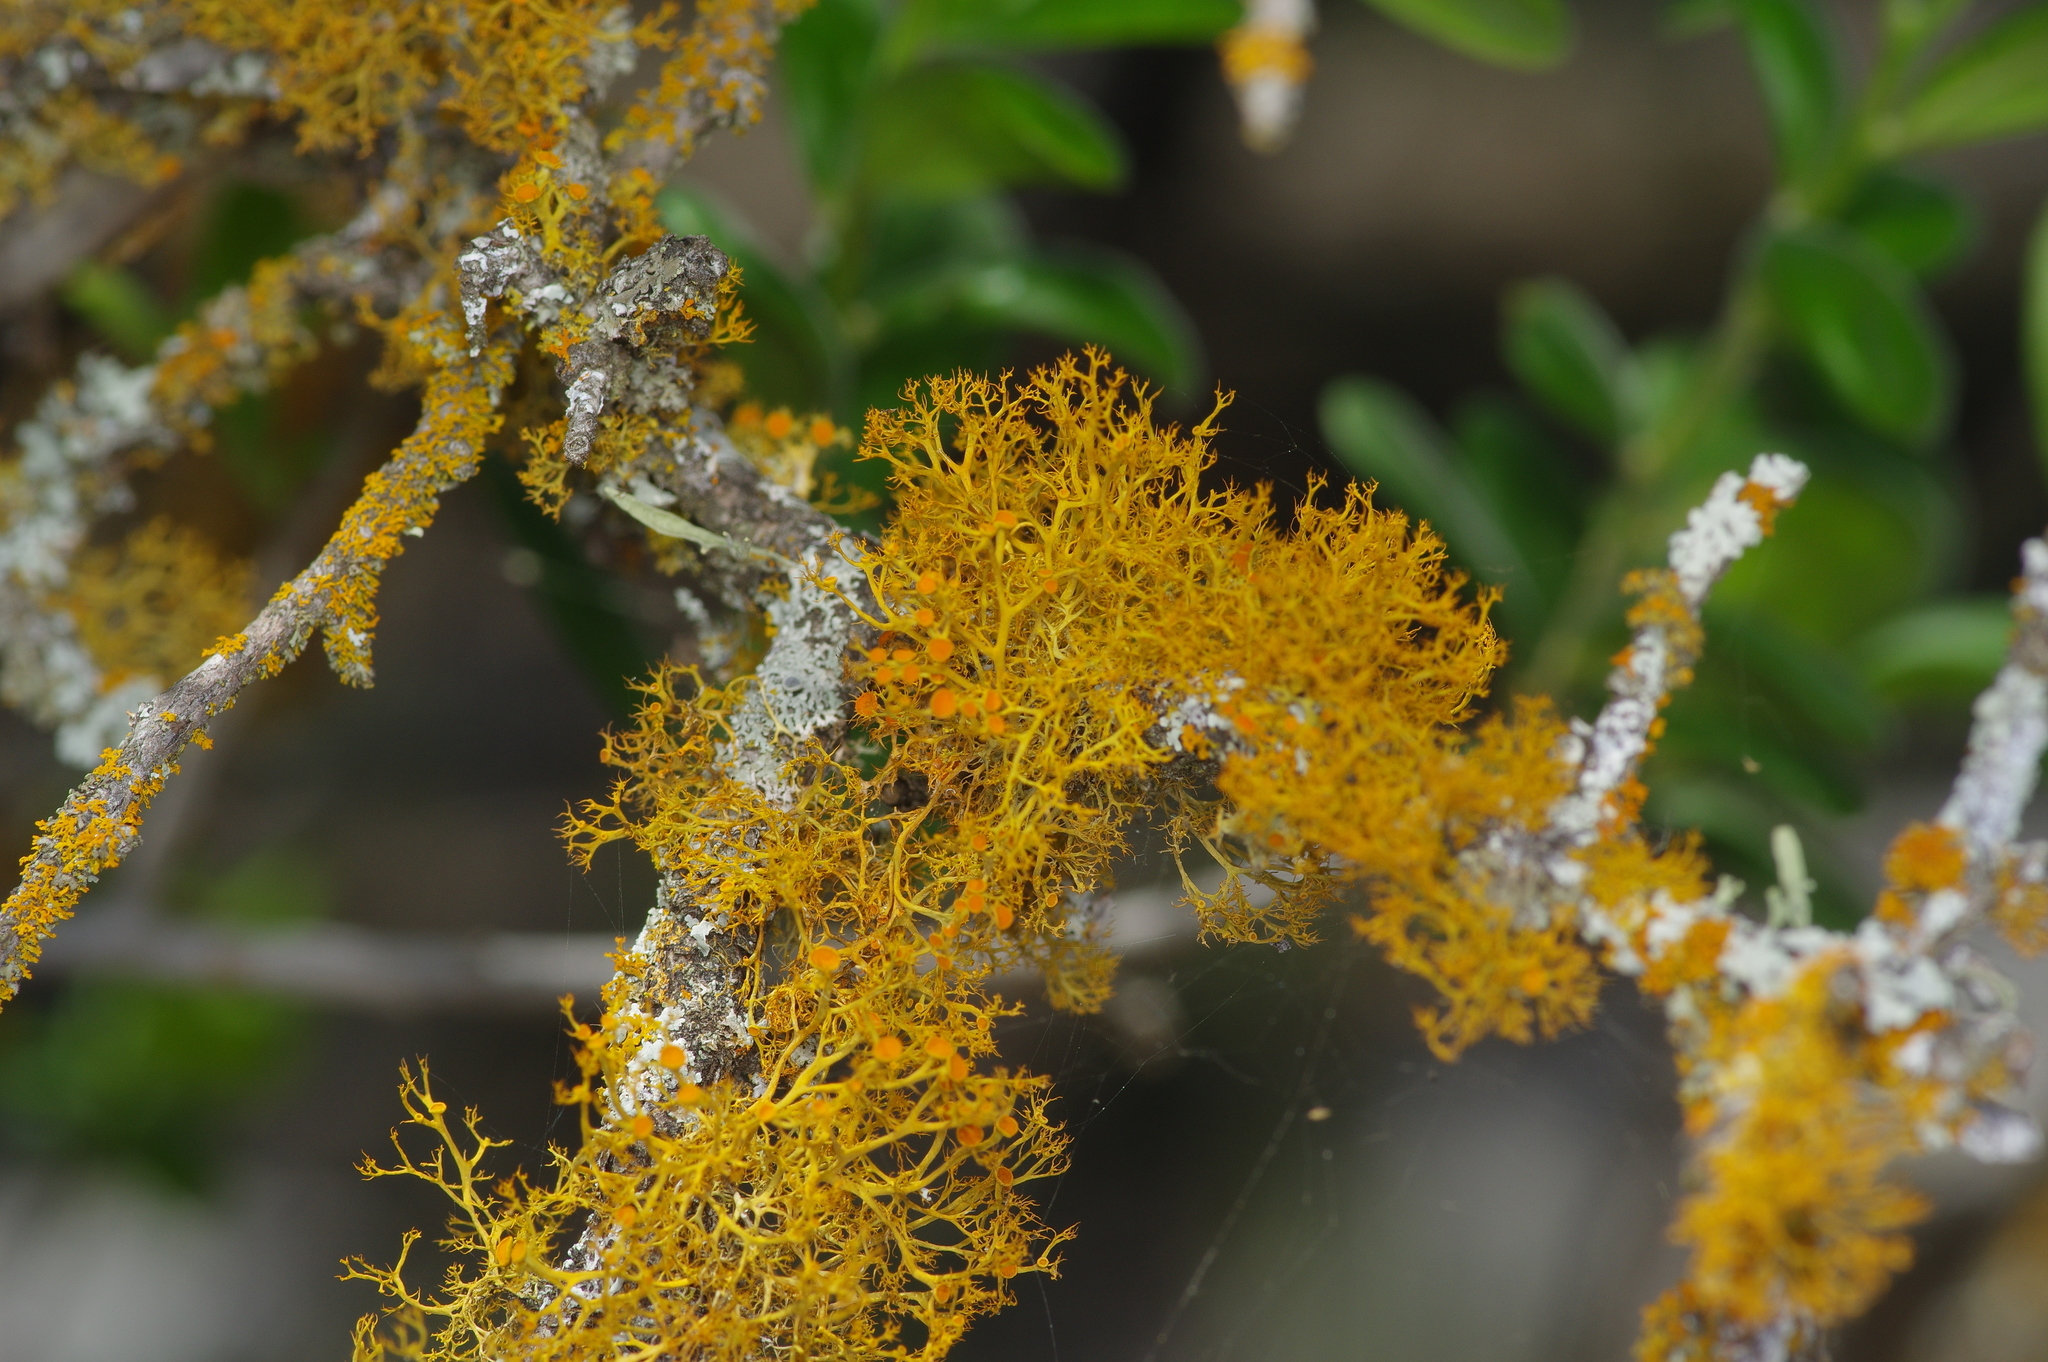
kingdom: Fungi
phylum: Ascomycota
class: Lecanoromycetes
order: Teloschistales
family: Teloschistaceae
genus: Teloschistes
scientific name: Teloschistes exilis
